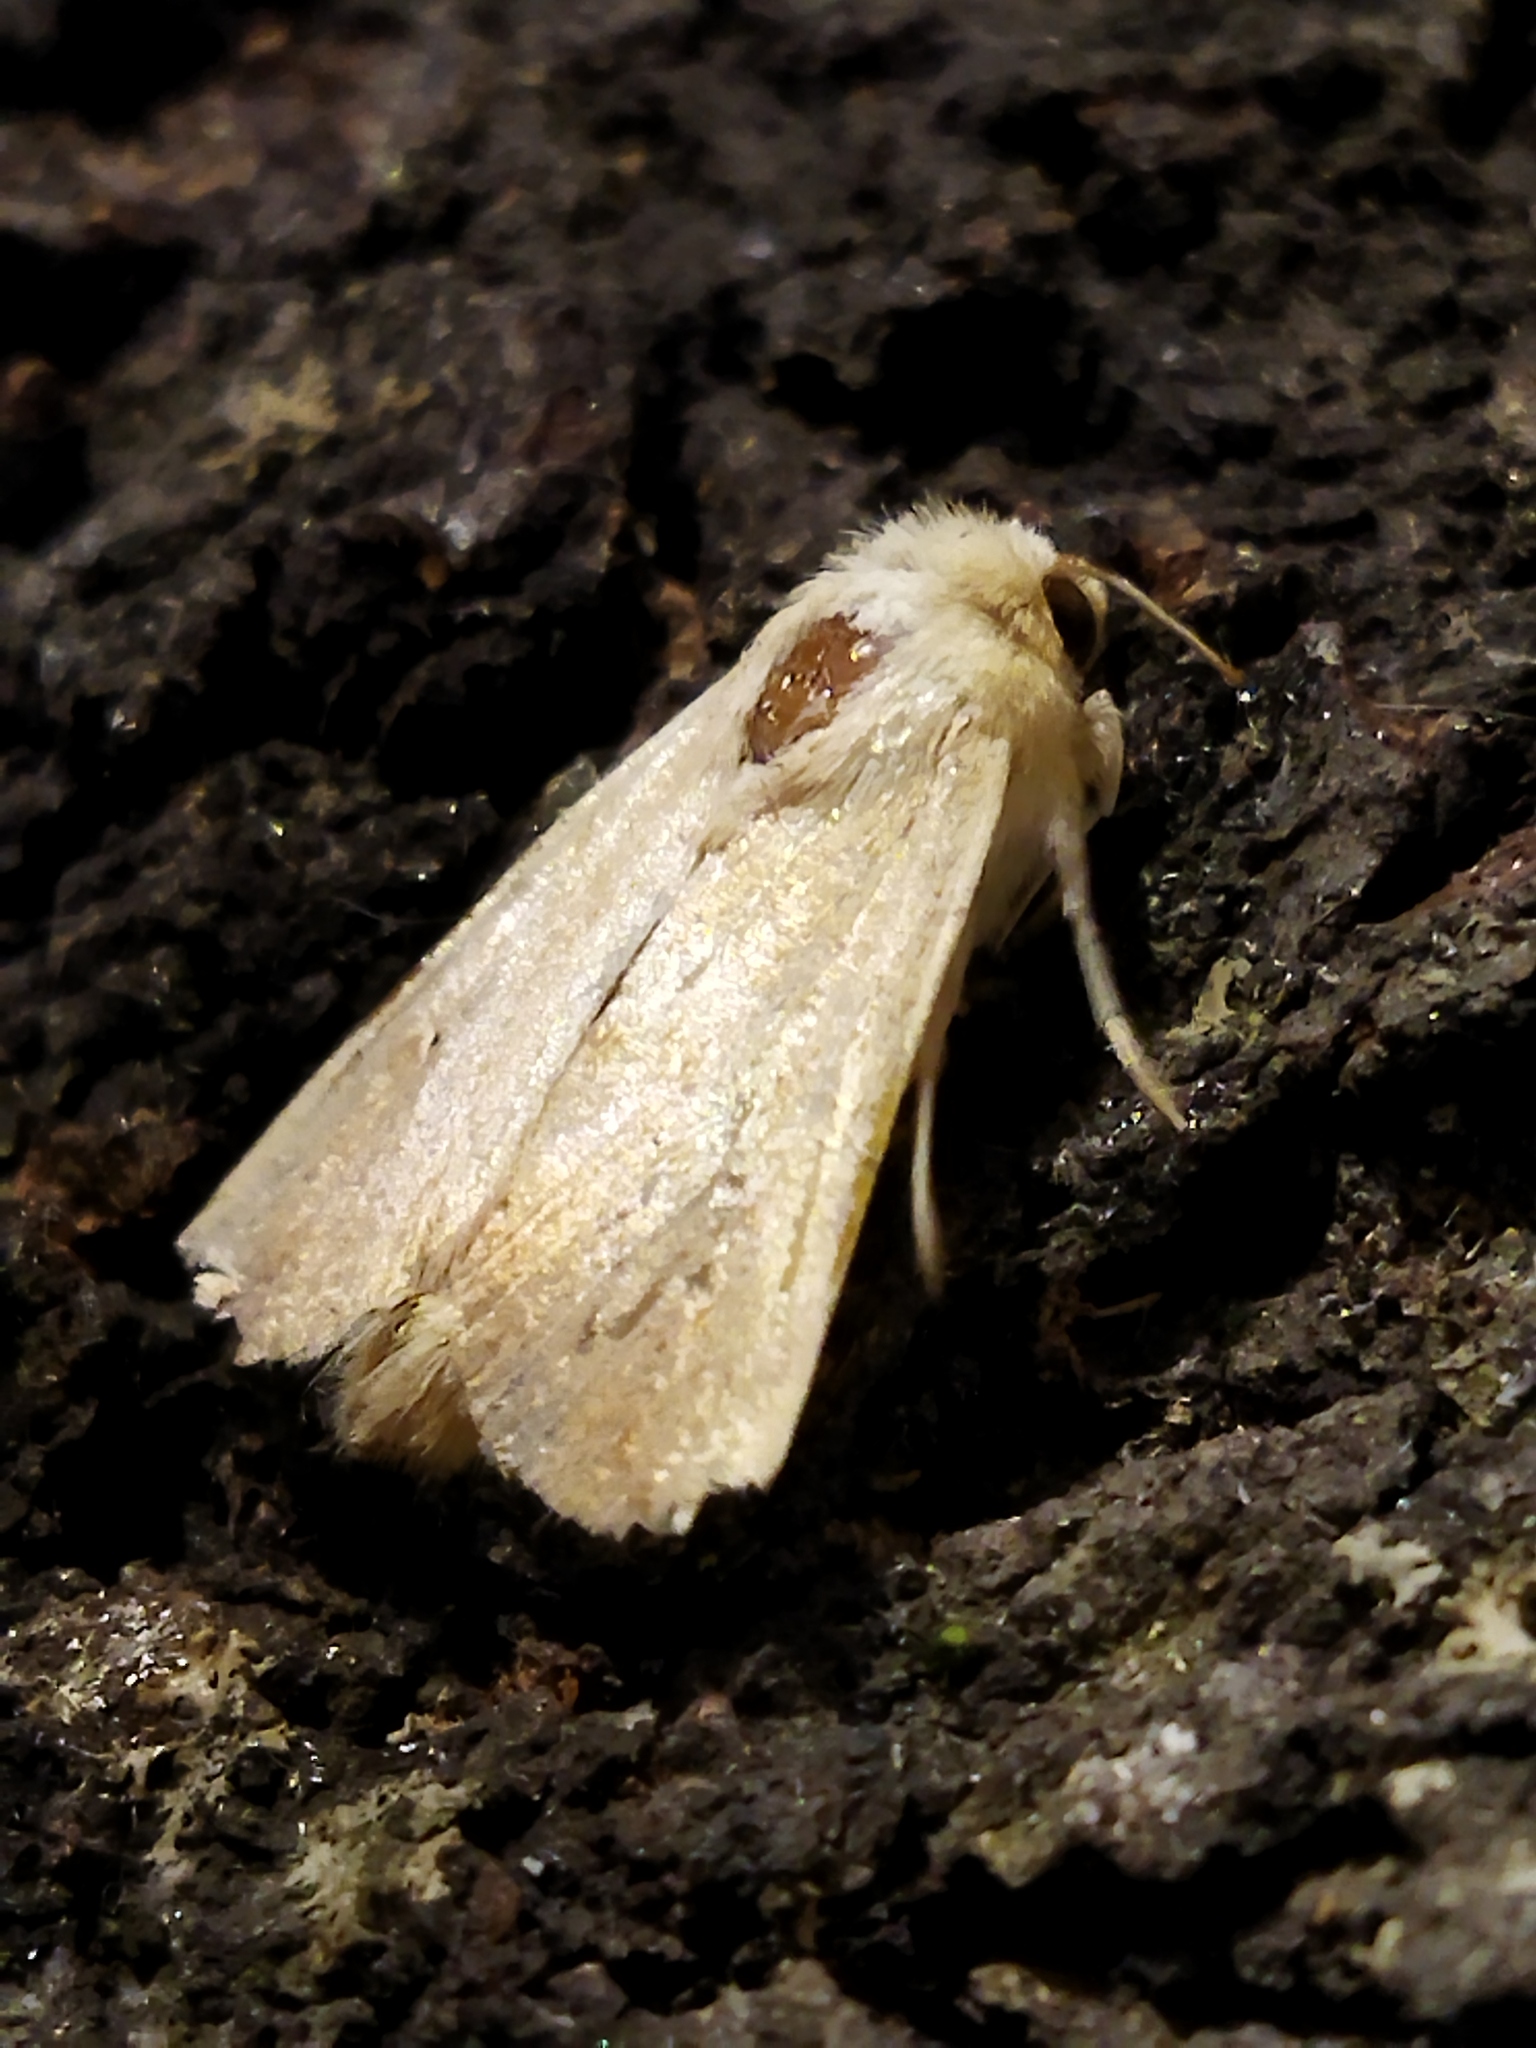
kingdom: Animalia
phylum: Arthropoda
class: Insecta
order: Lepidoptera
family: Noctuidae
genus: Mythimna
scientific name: Mythimna vitellina
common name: Delicate
